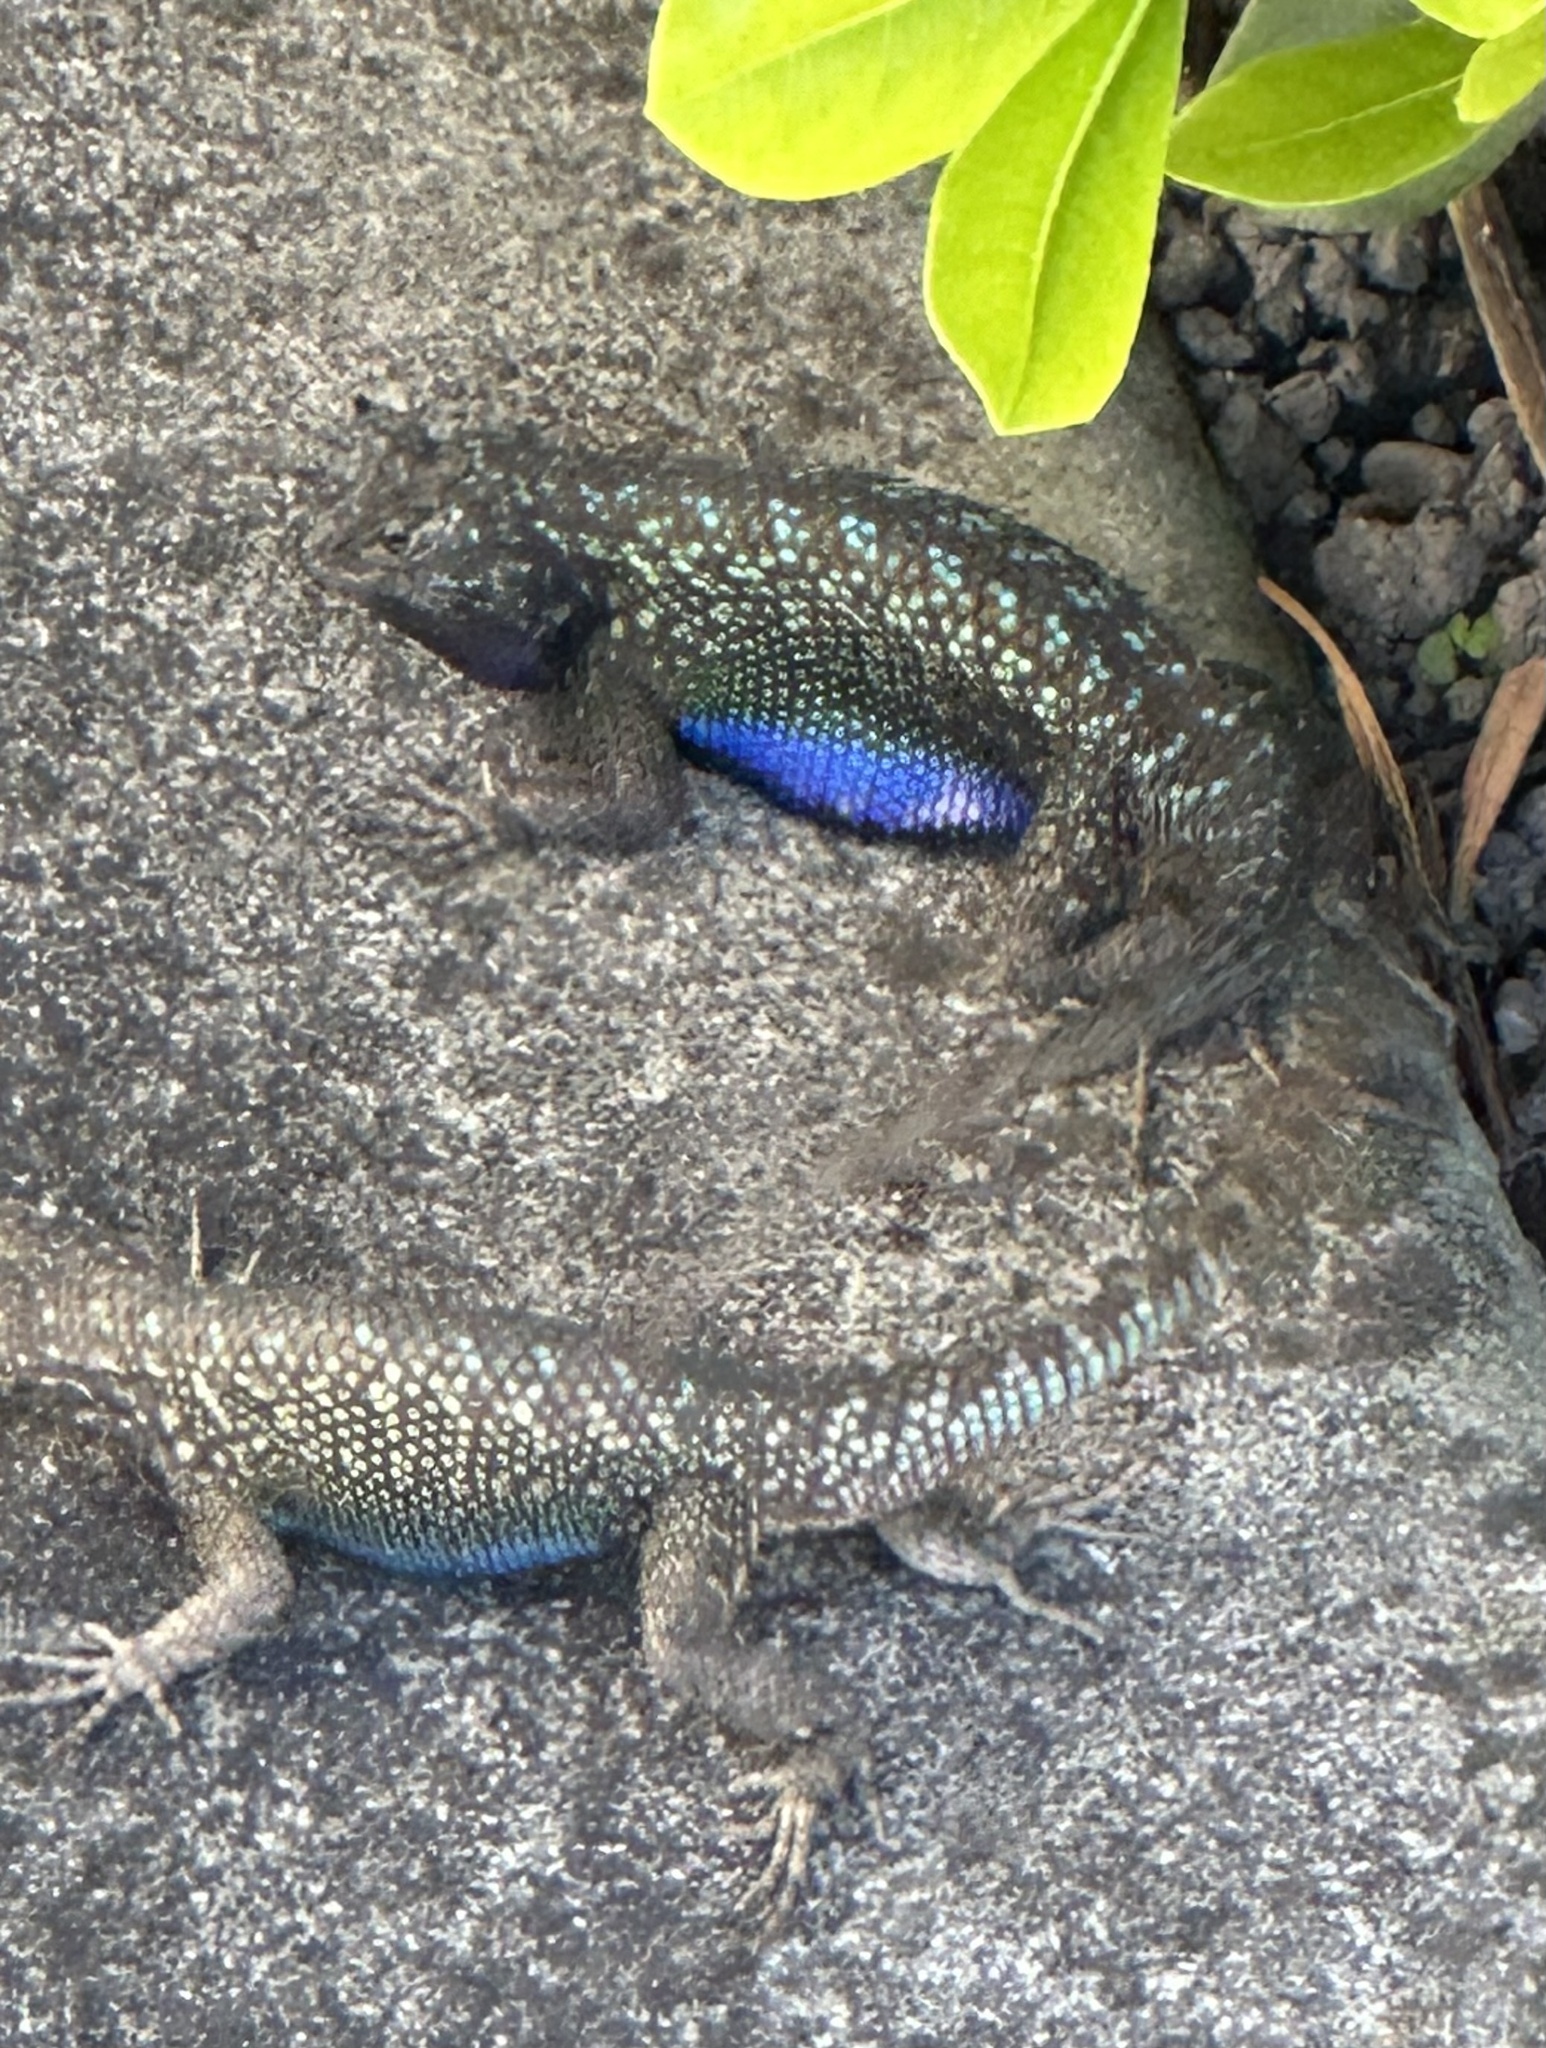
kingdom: Animalia
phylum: Chordata
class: Squamata
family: Phrynosomatidae
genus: Sceloporus
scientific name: Sceloporus occidentalis
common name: Western fence lizard
